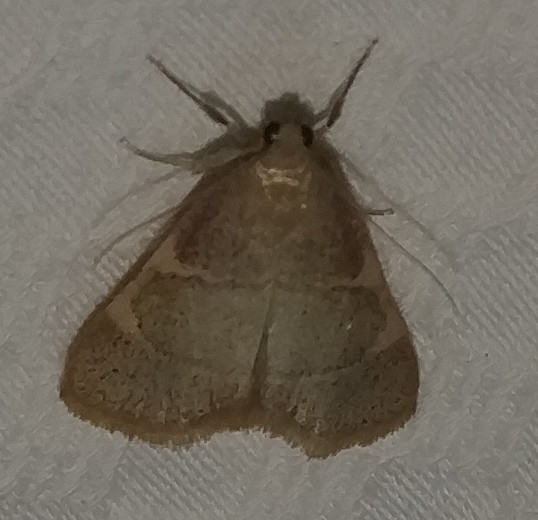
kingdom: Animalia
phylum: Arthropoda
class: Insecta
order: Lepidoptera
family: Pyralidae
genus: Hypsopygia
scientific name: Hypsopygia olinalis
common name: Yellow-fringed dolichomia moth
